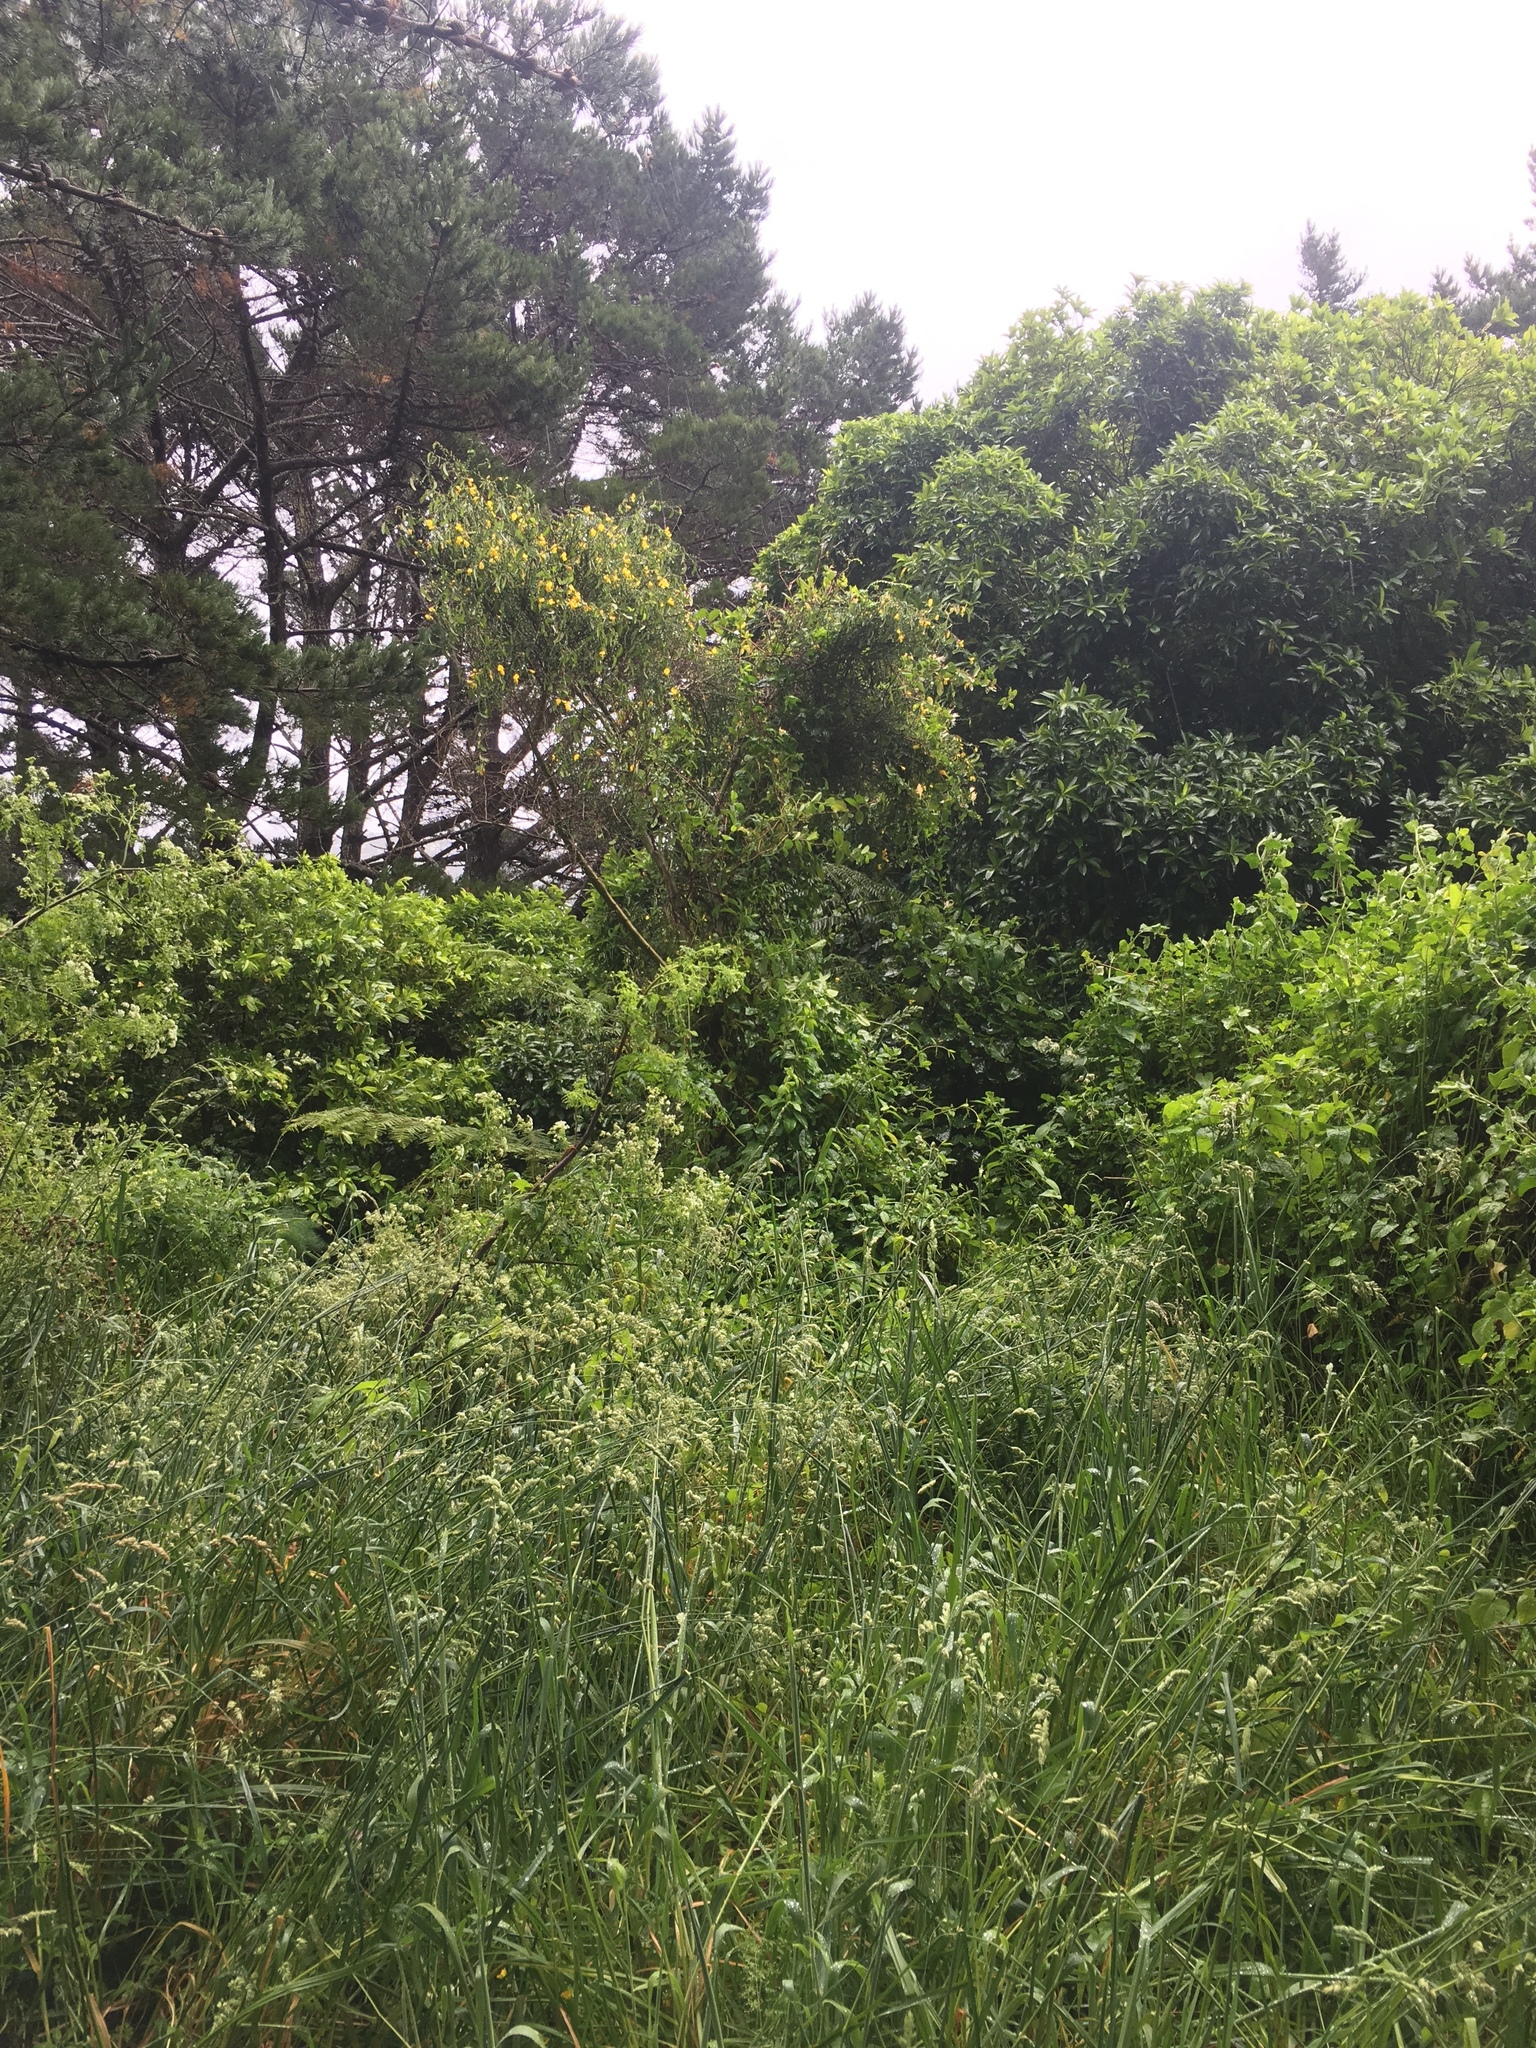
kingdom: Plantae
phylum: Tracheophyta
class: Magnoliopsida
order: Asterales
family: Asteraceae
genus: Senecio
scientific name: Senecio angulatus
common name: Climbing groundsel
